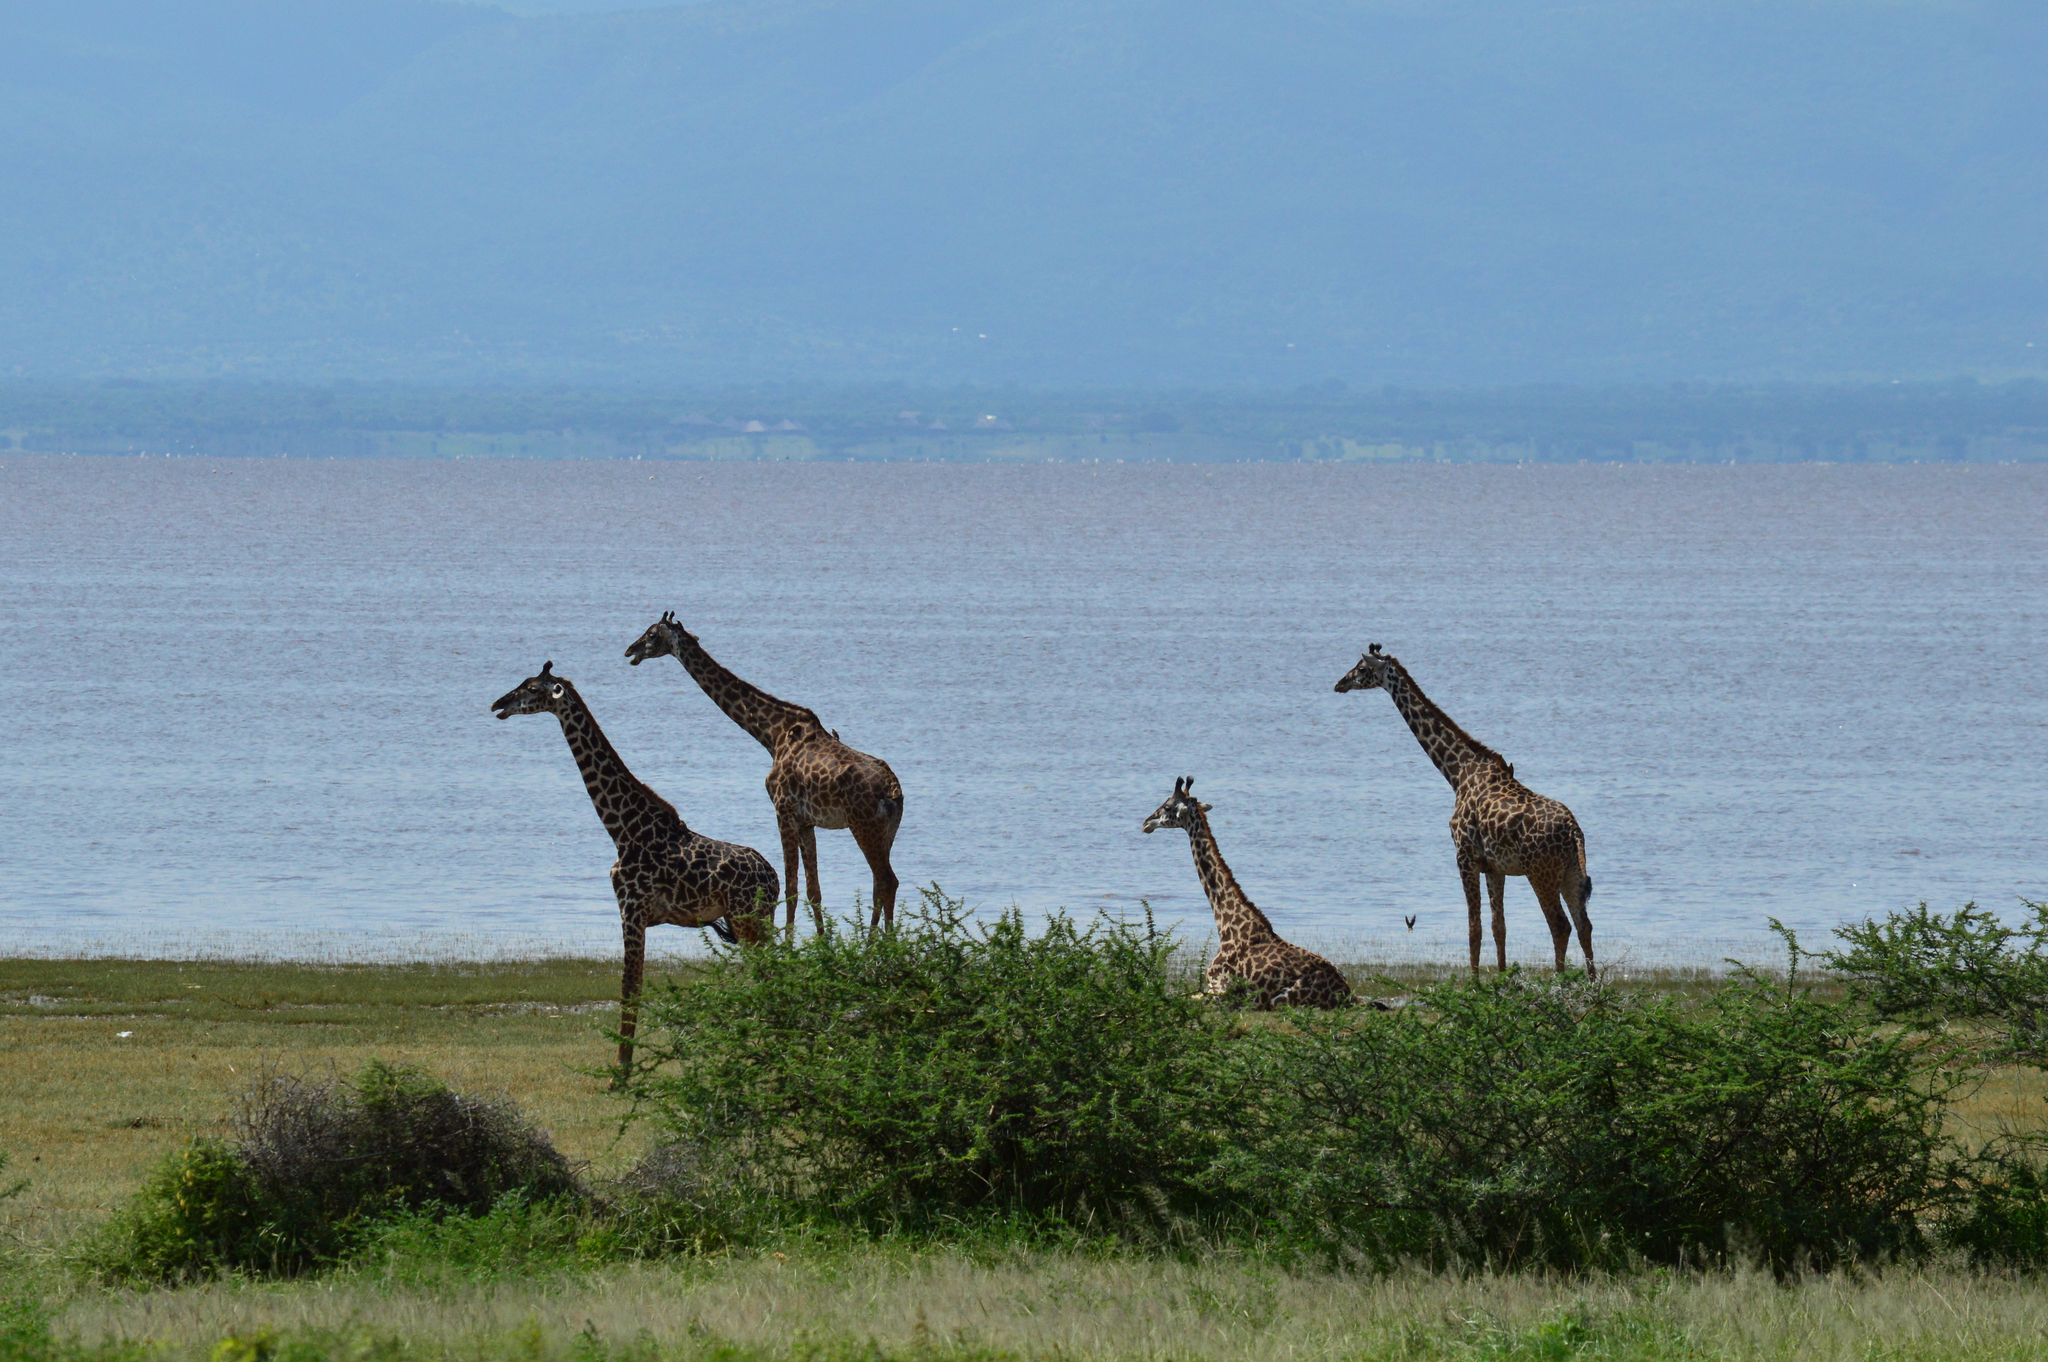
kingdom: Animalia
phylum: Chordata
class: Mammalia
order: Artiodactyla
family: Giraffidae
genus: Giraffa
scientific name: Giraffa tippelskirchi
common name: Masai giraffe
